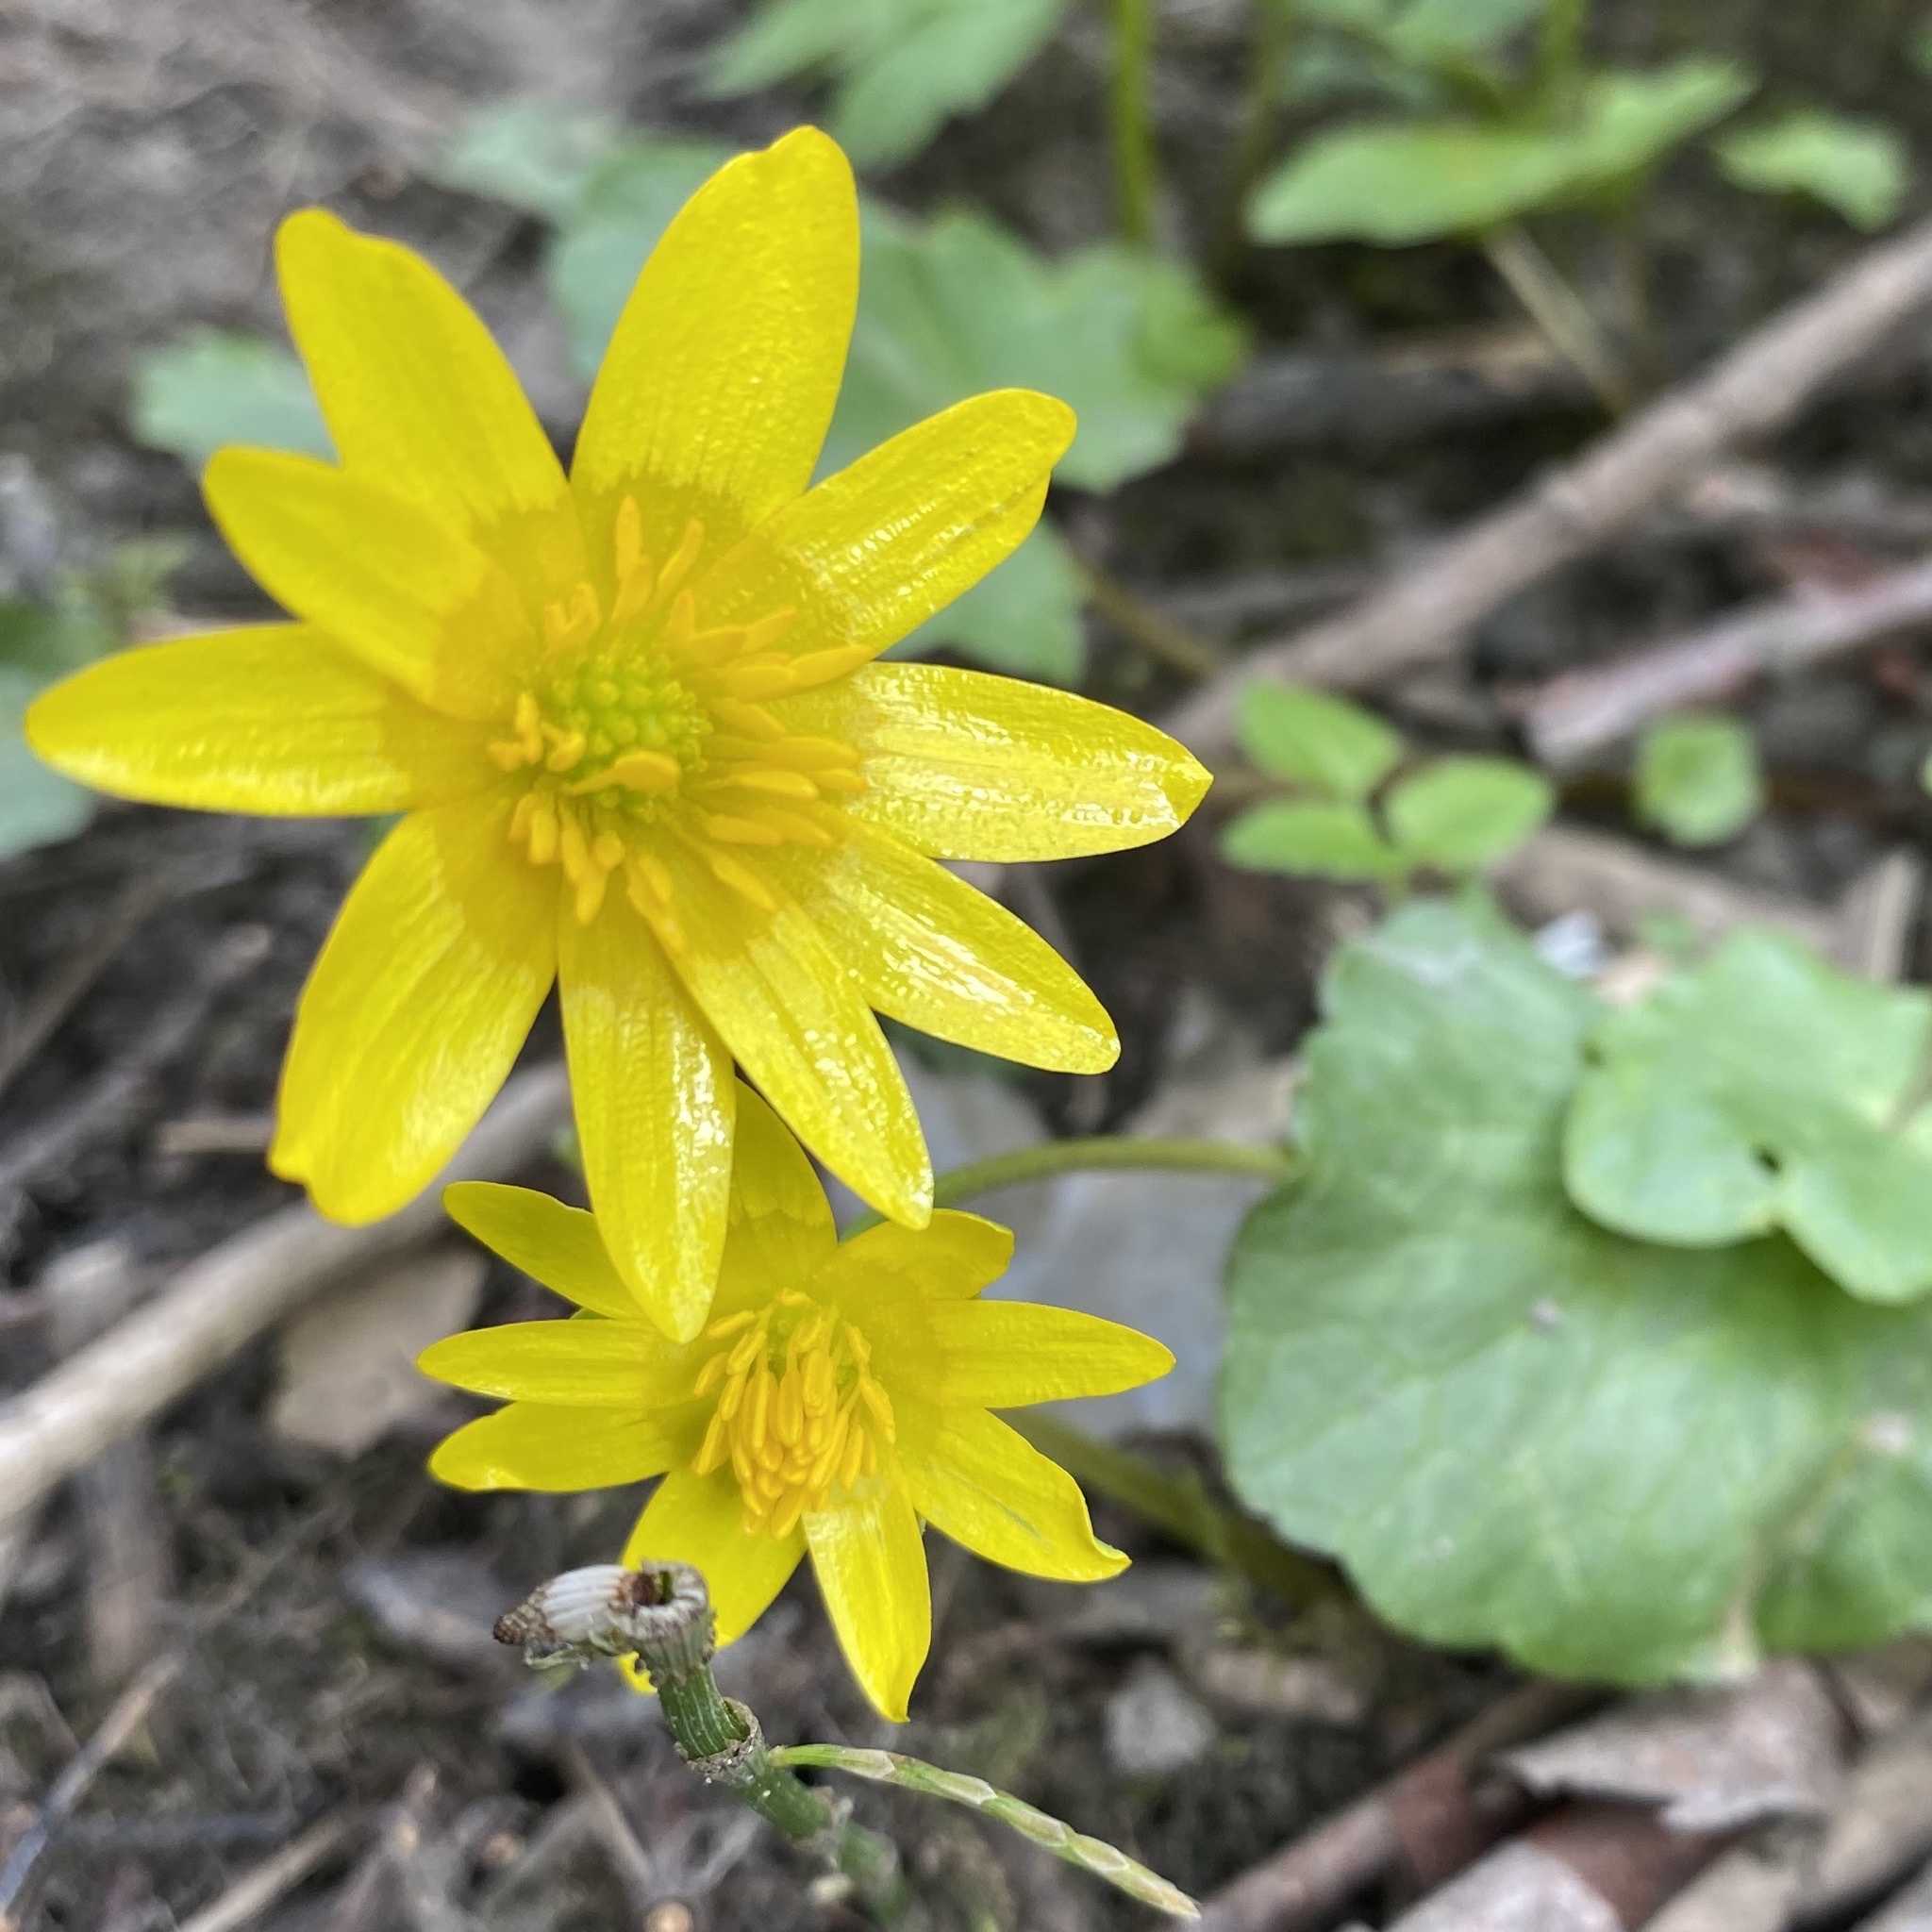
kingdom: Plantae
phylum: Tracheophyta
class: Magnoliopsida
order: Ranunculales
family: Ranunculaceae
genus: Ficaria
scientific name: Ficaria verna
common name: Lesser celandine
